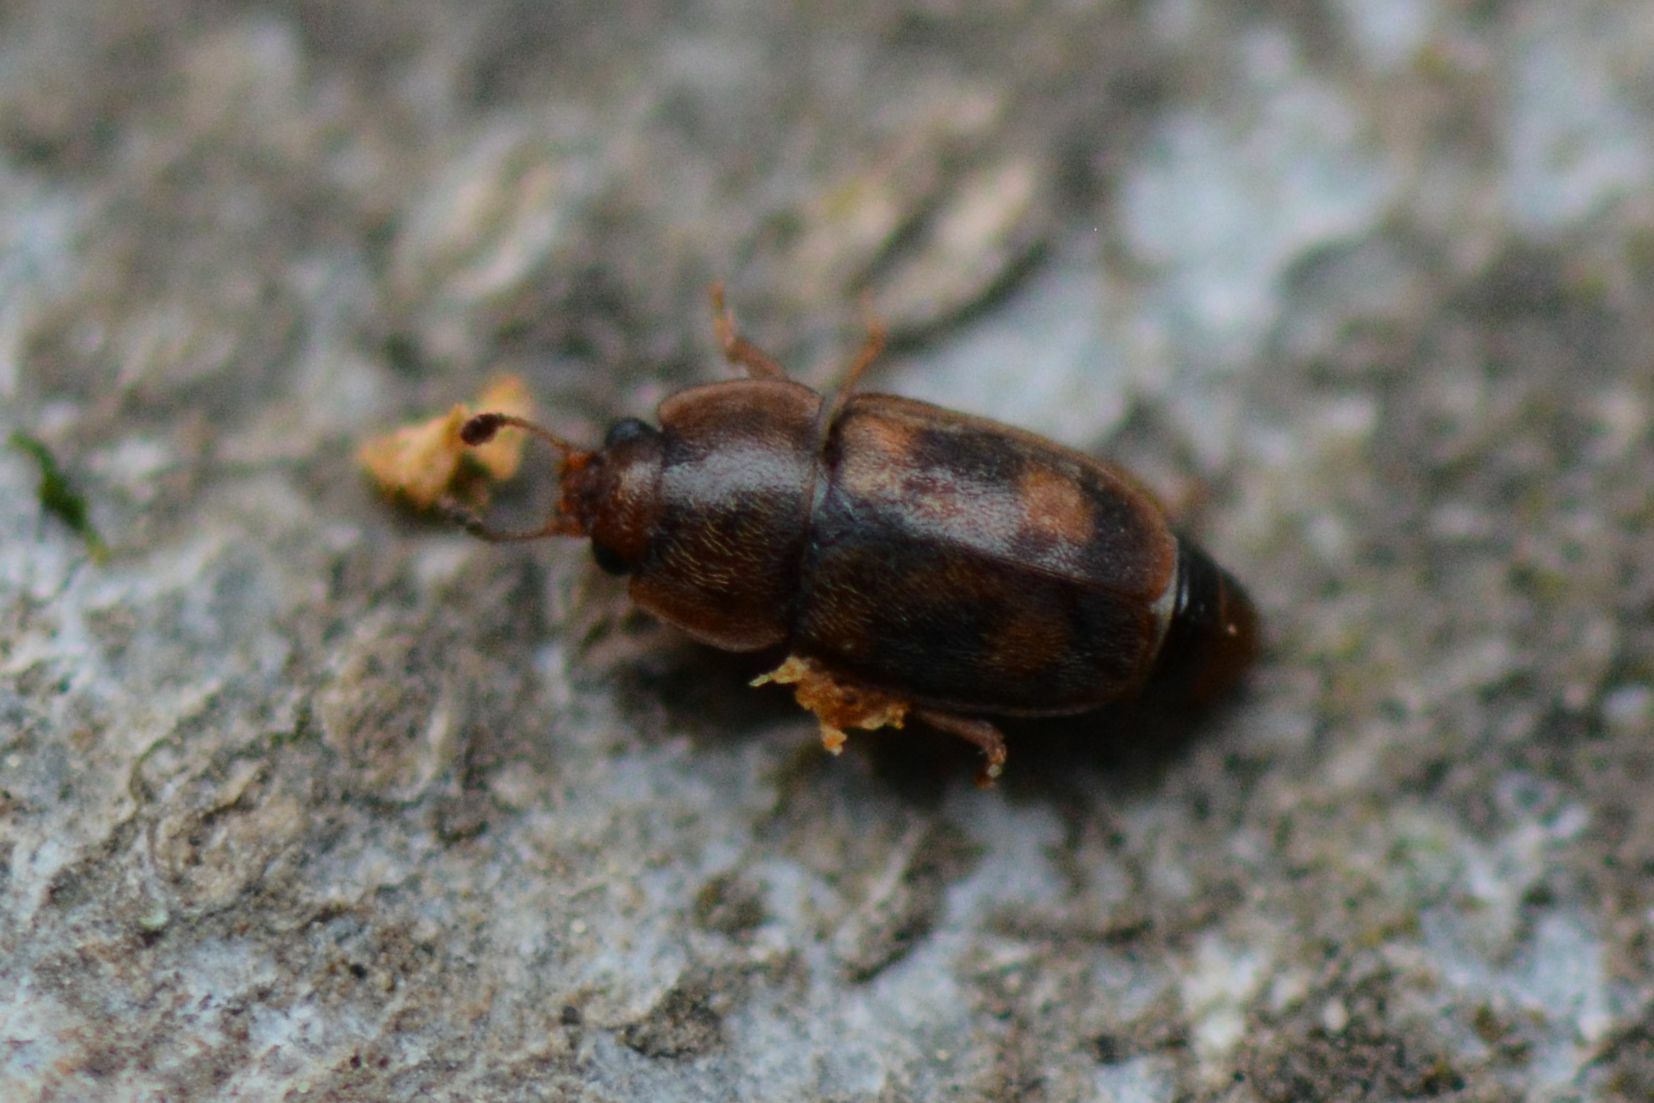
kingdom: Animalia
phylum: Arthropoda
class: Insecta
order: Coleoptera
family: Nitidulidae
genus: Epuraea
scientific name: Epuraea unicolor
